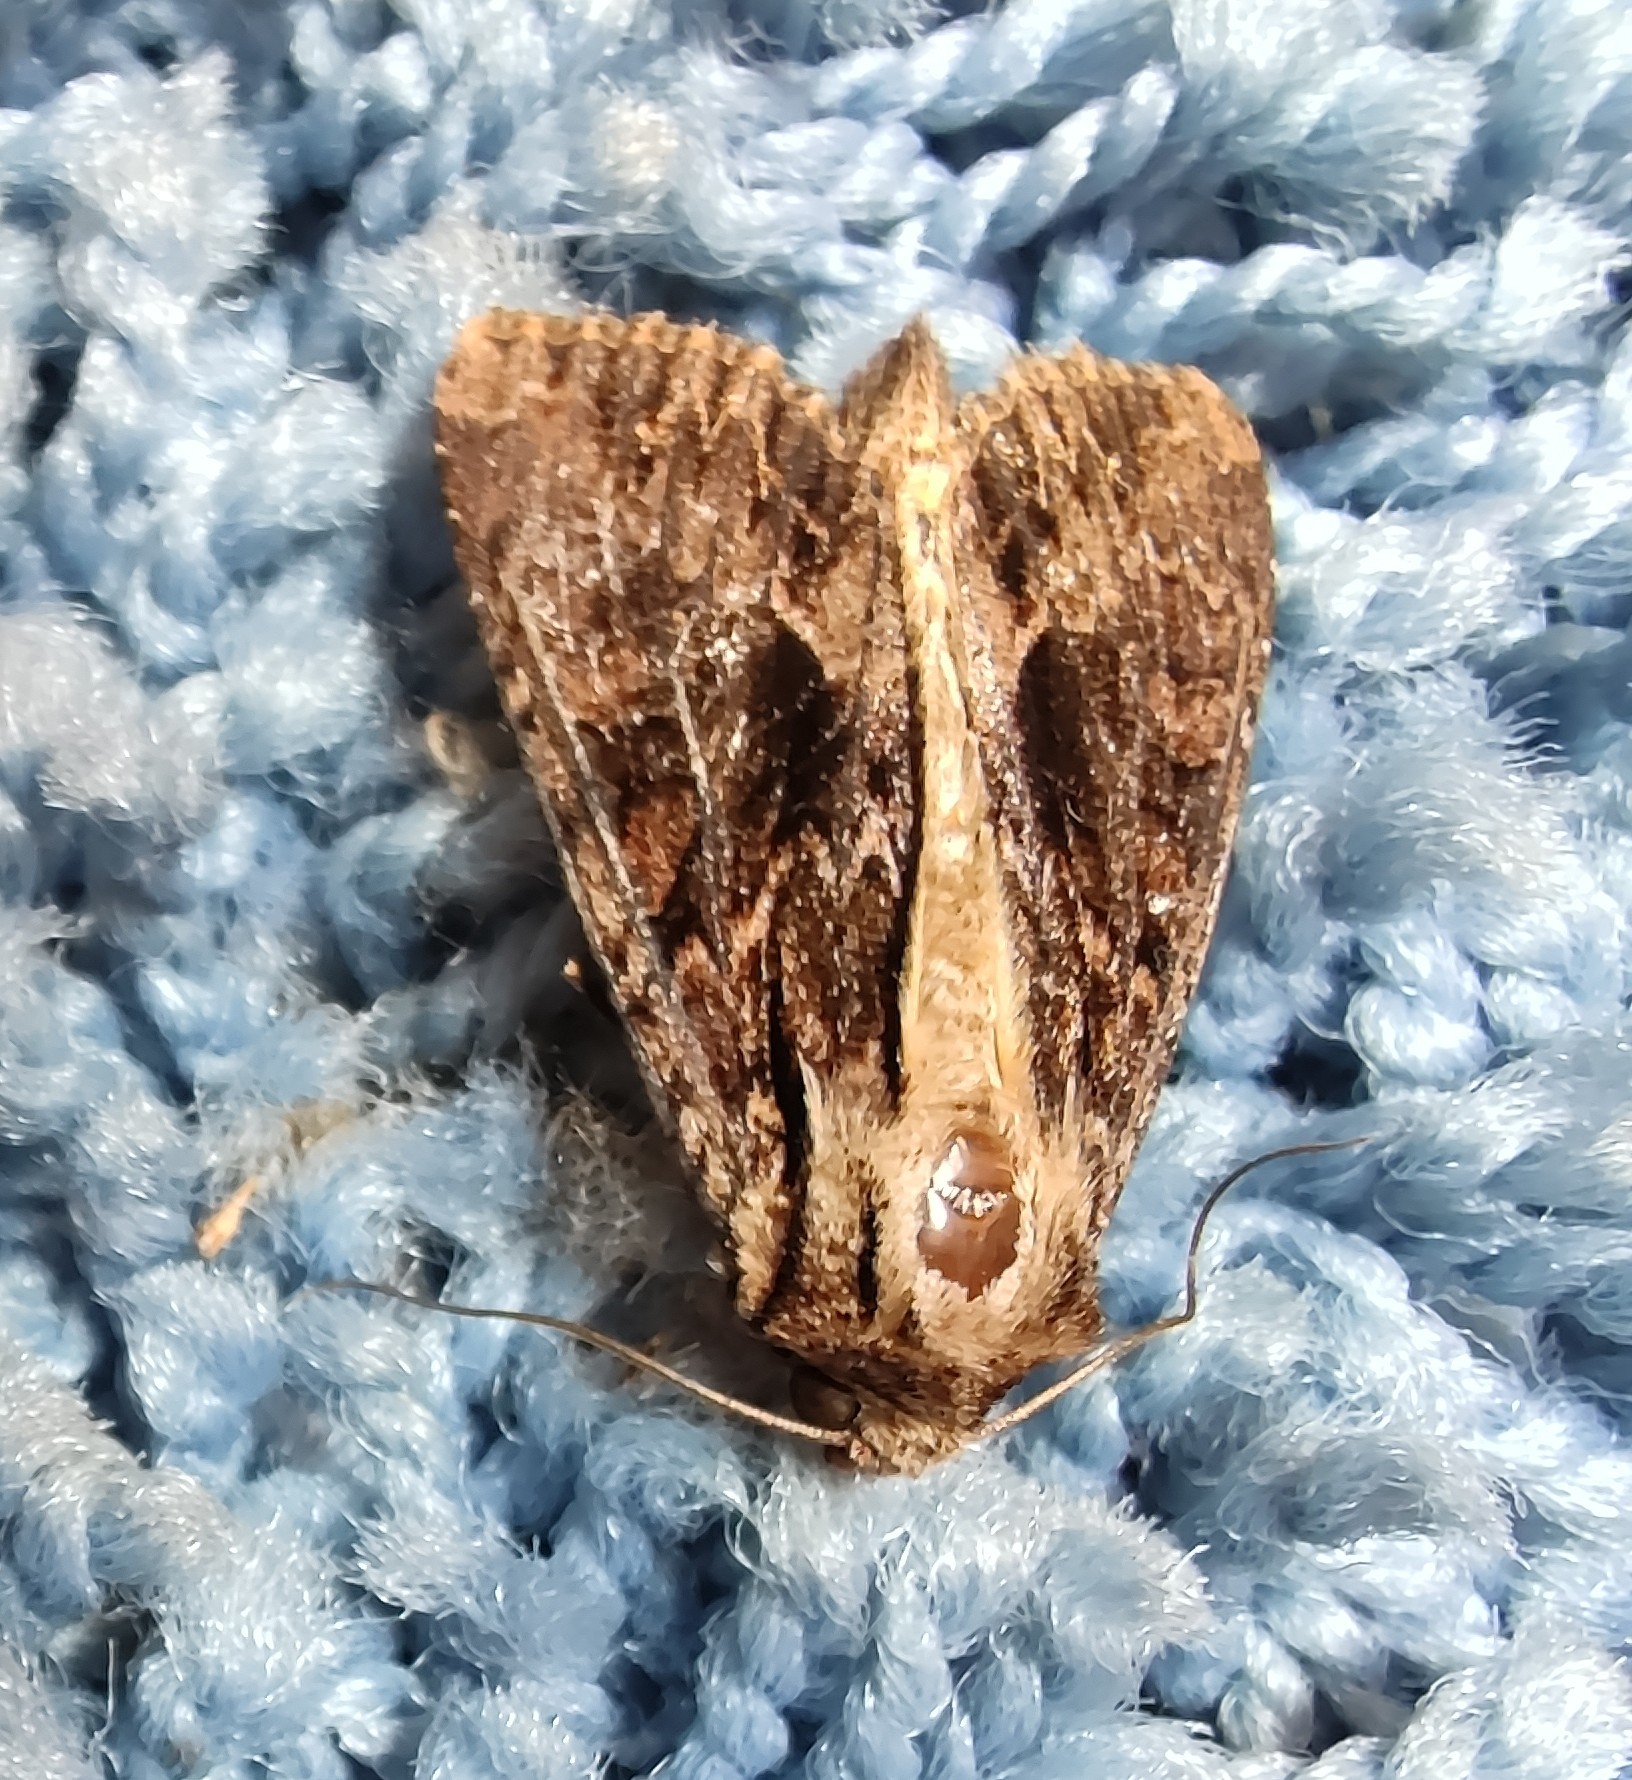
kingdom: Animalia
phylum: Arthropoda
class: Insecta
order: Lepidoptera
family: Noctuidae
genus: Apamea
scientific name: Apamea monoglypha
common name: Dark arches
